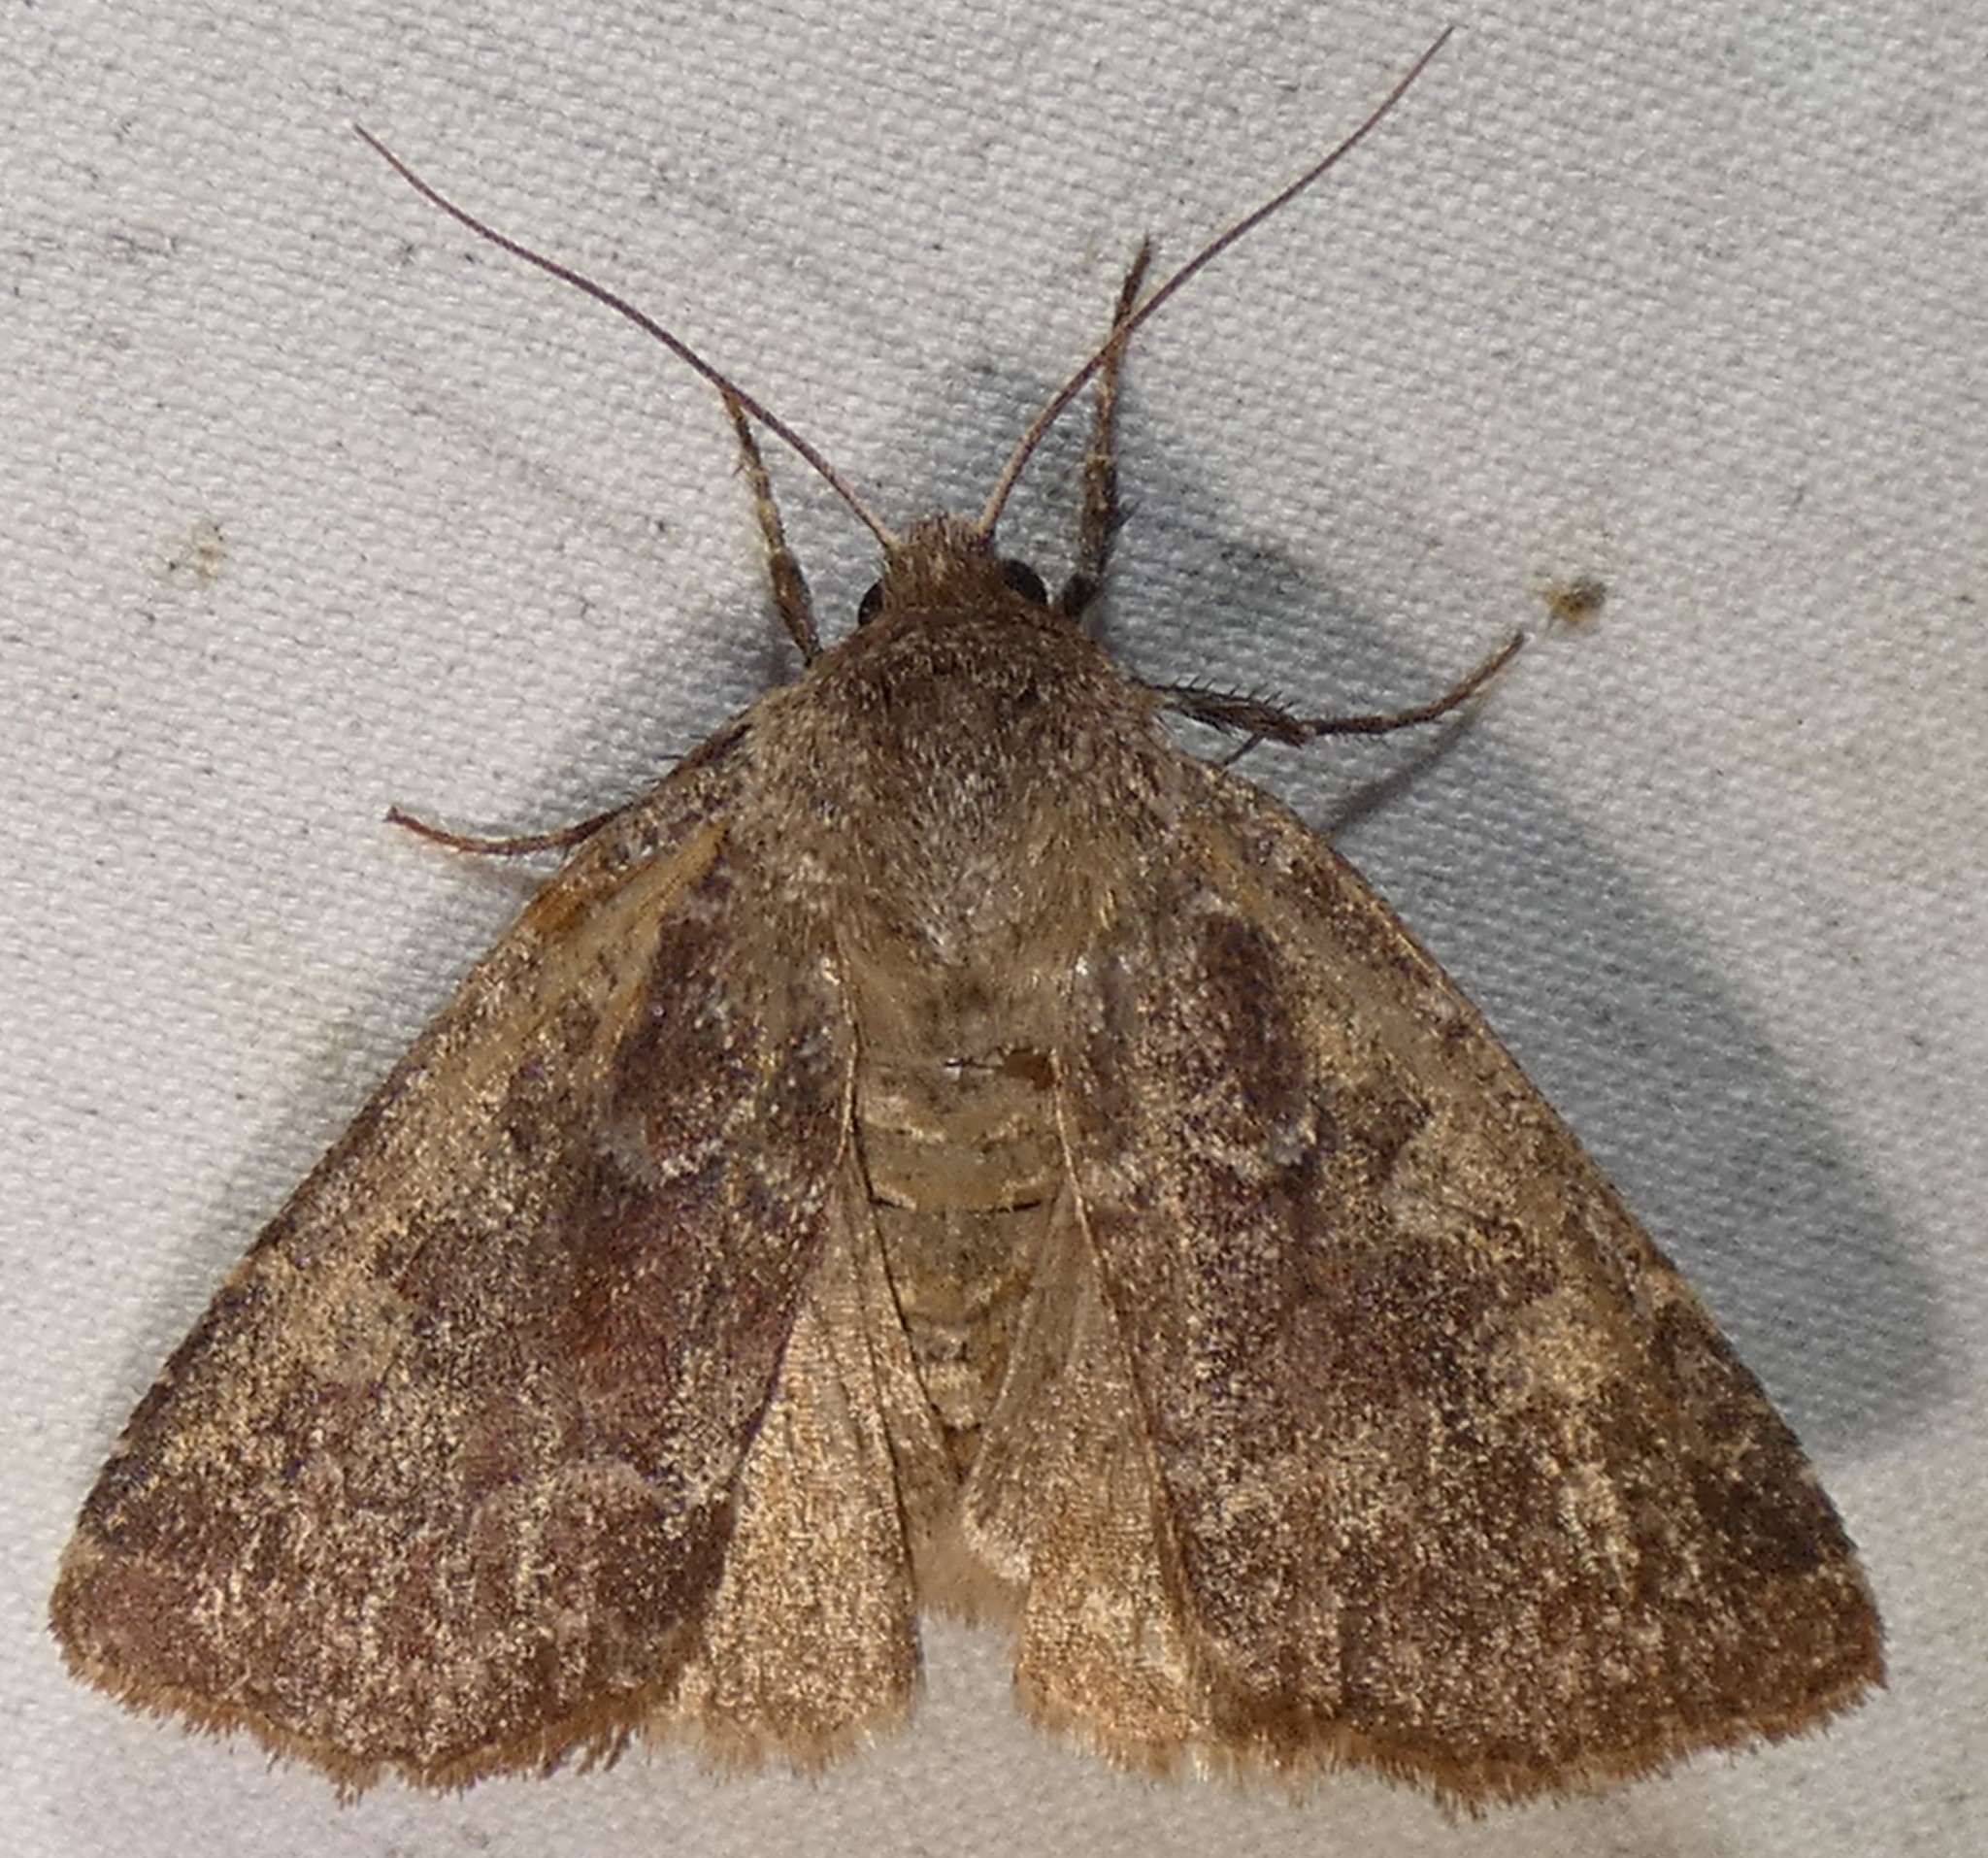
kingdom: Animalia
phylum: Arthropoda
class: Insecta
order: Lepidoptera
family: Noctuidae
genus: Cerastis
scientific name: Cerastis tenebrifera
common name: Reddish speckled dart
